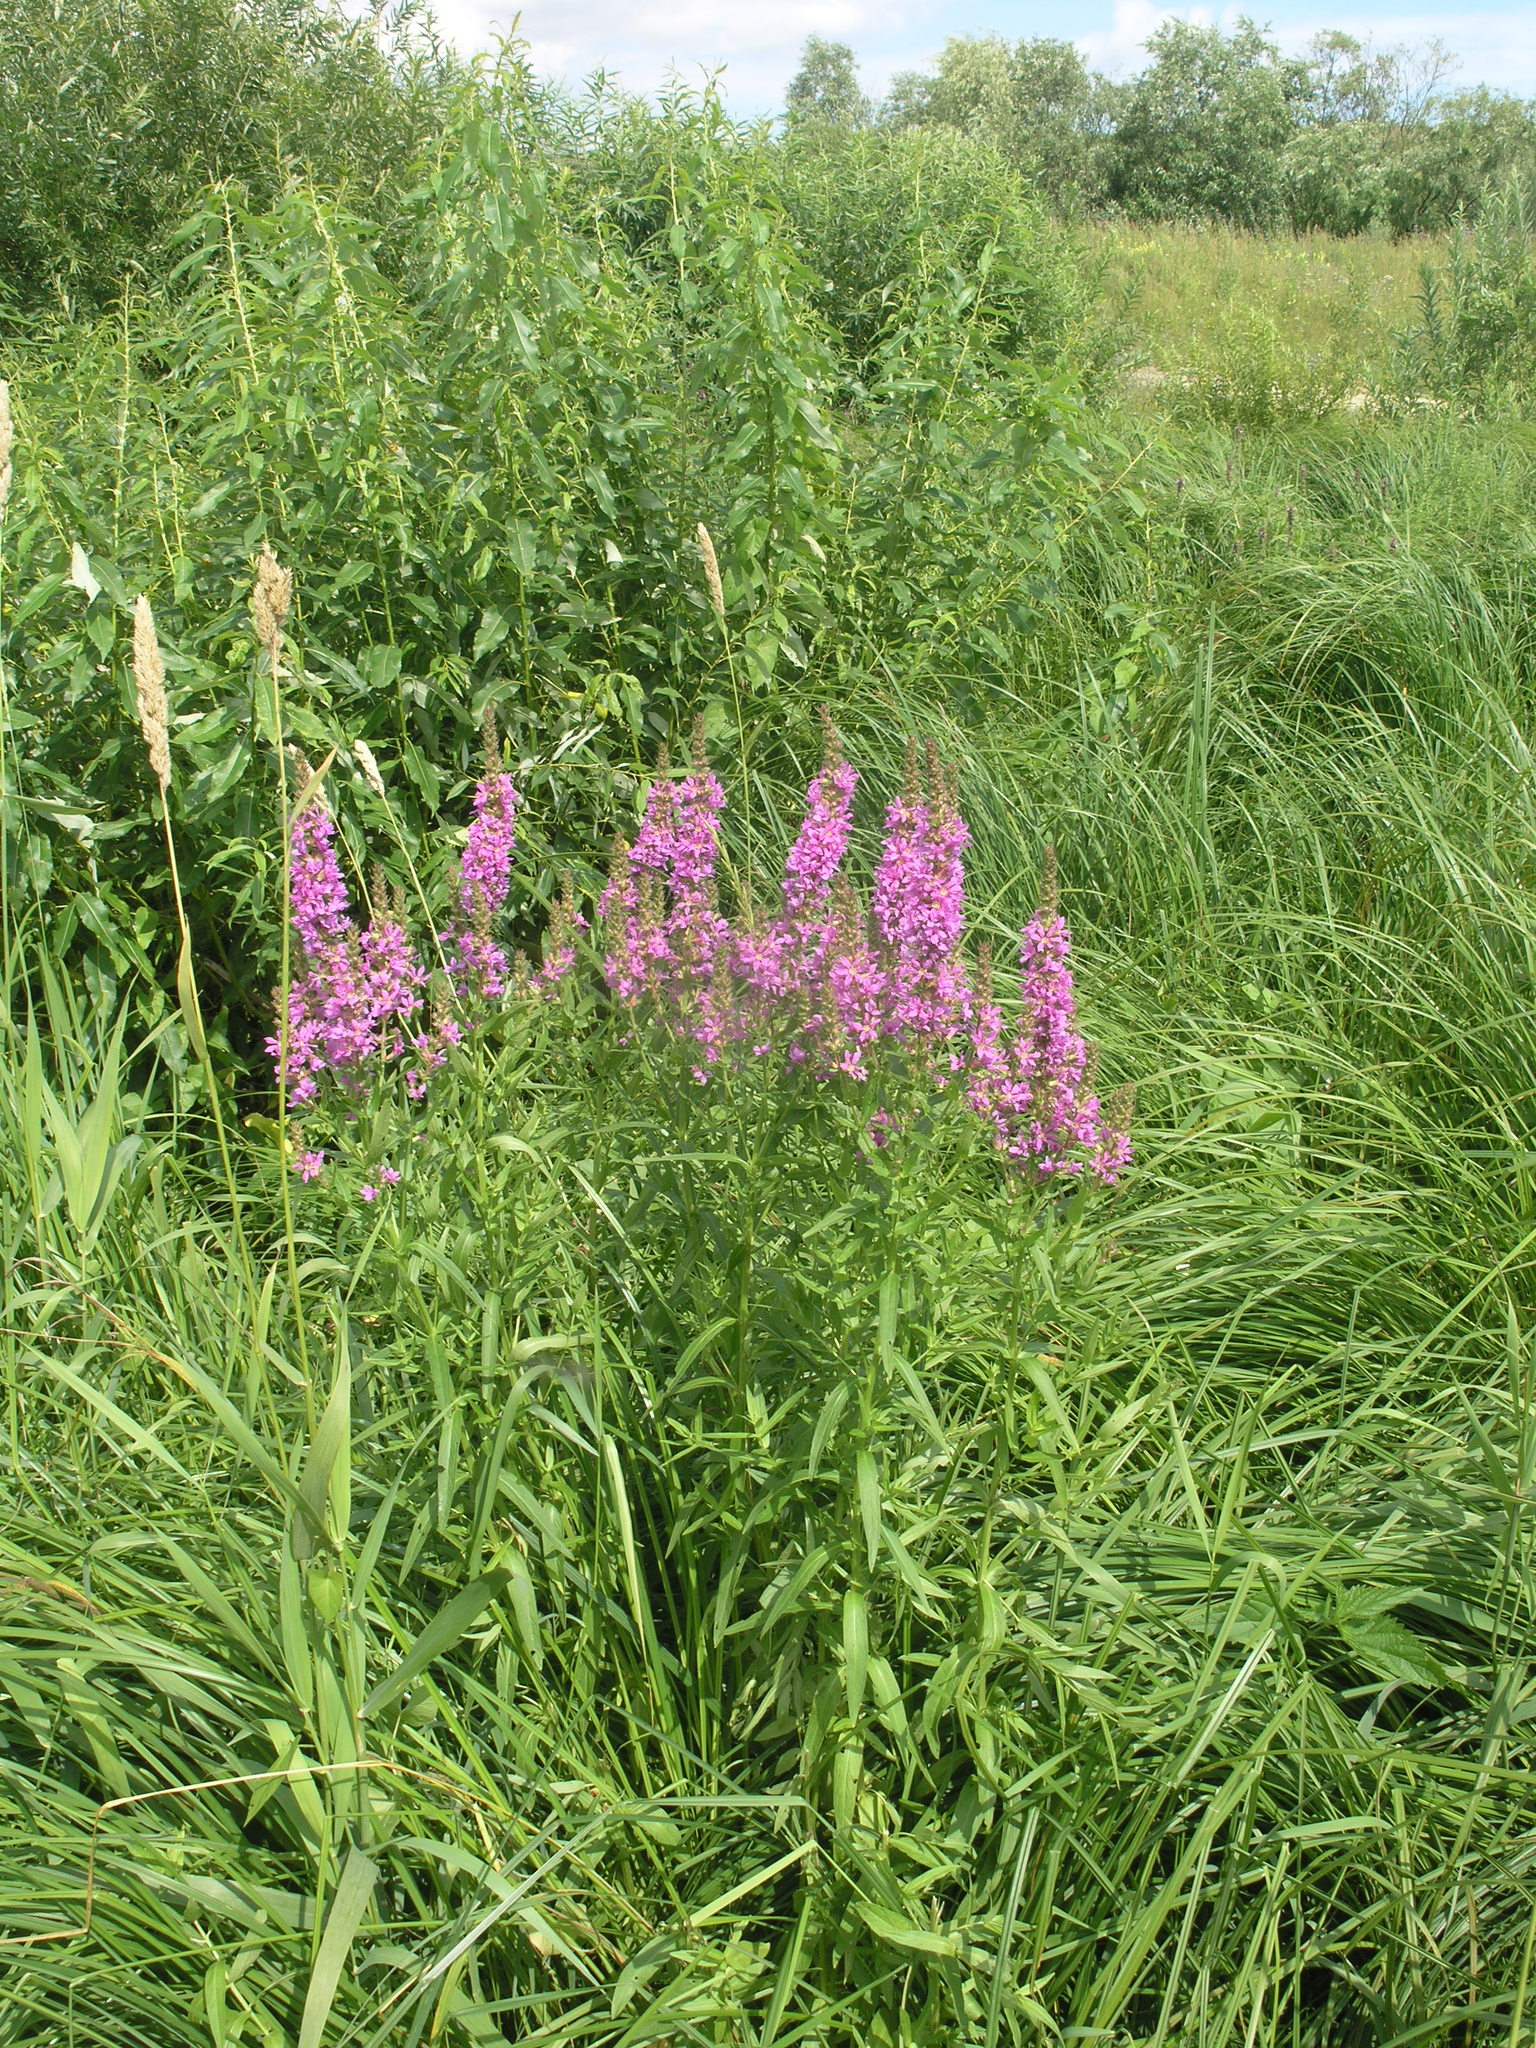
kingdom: Plantae
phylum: Tracheophyta
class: Magnoliopsida
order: Myrtales
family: Lythraceae
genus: Lythrum
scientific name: Lythrum salicaria
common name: Purple loosestrife
